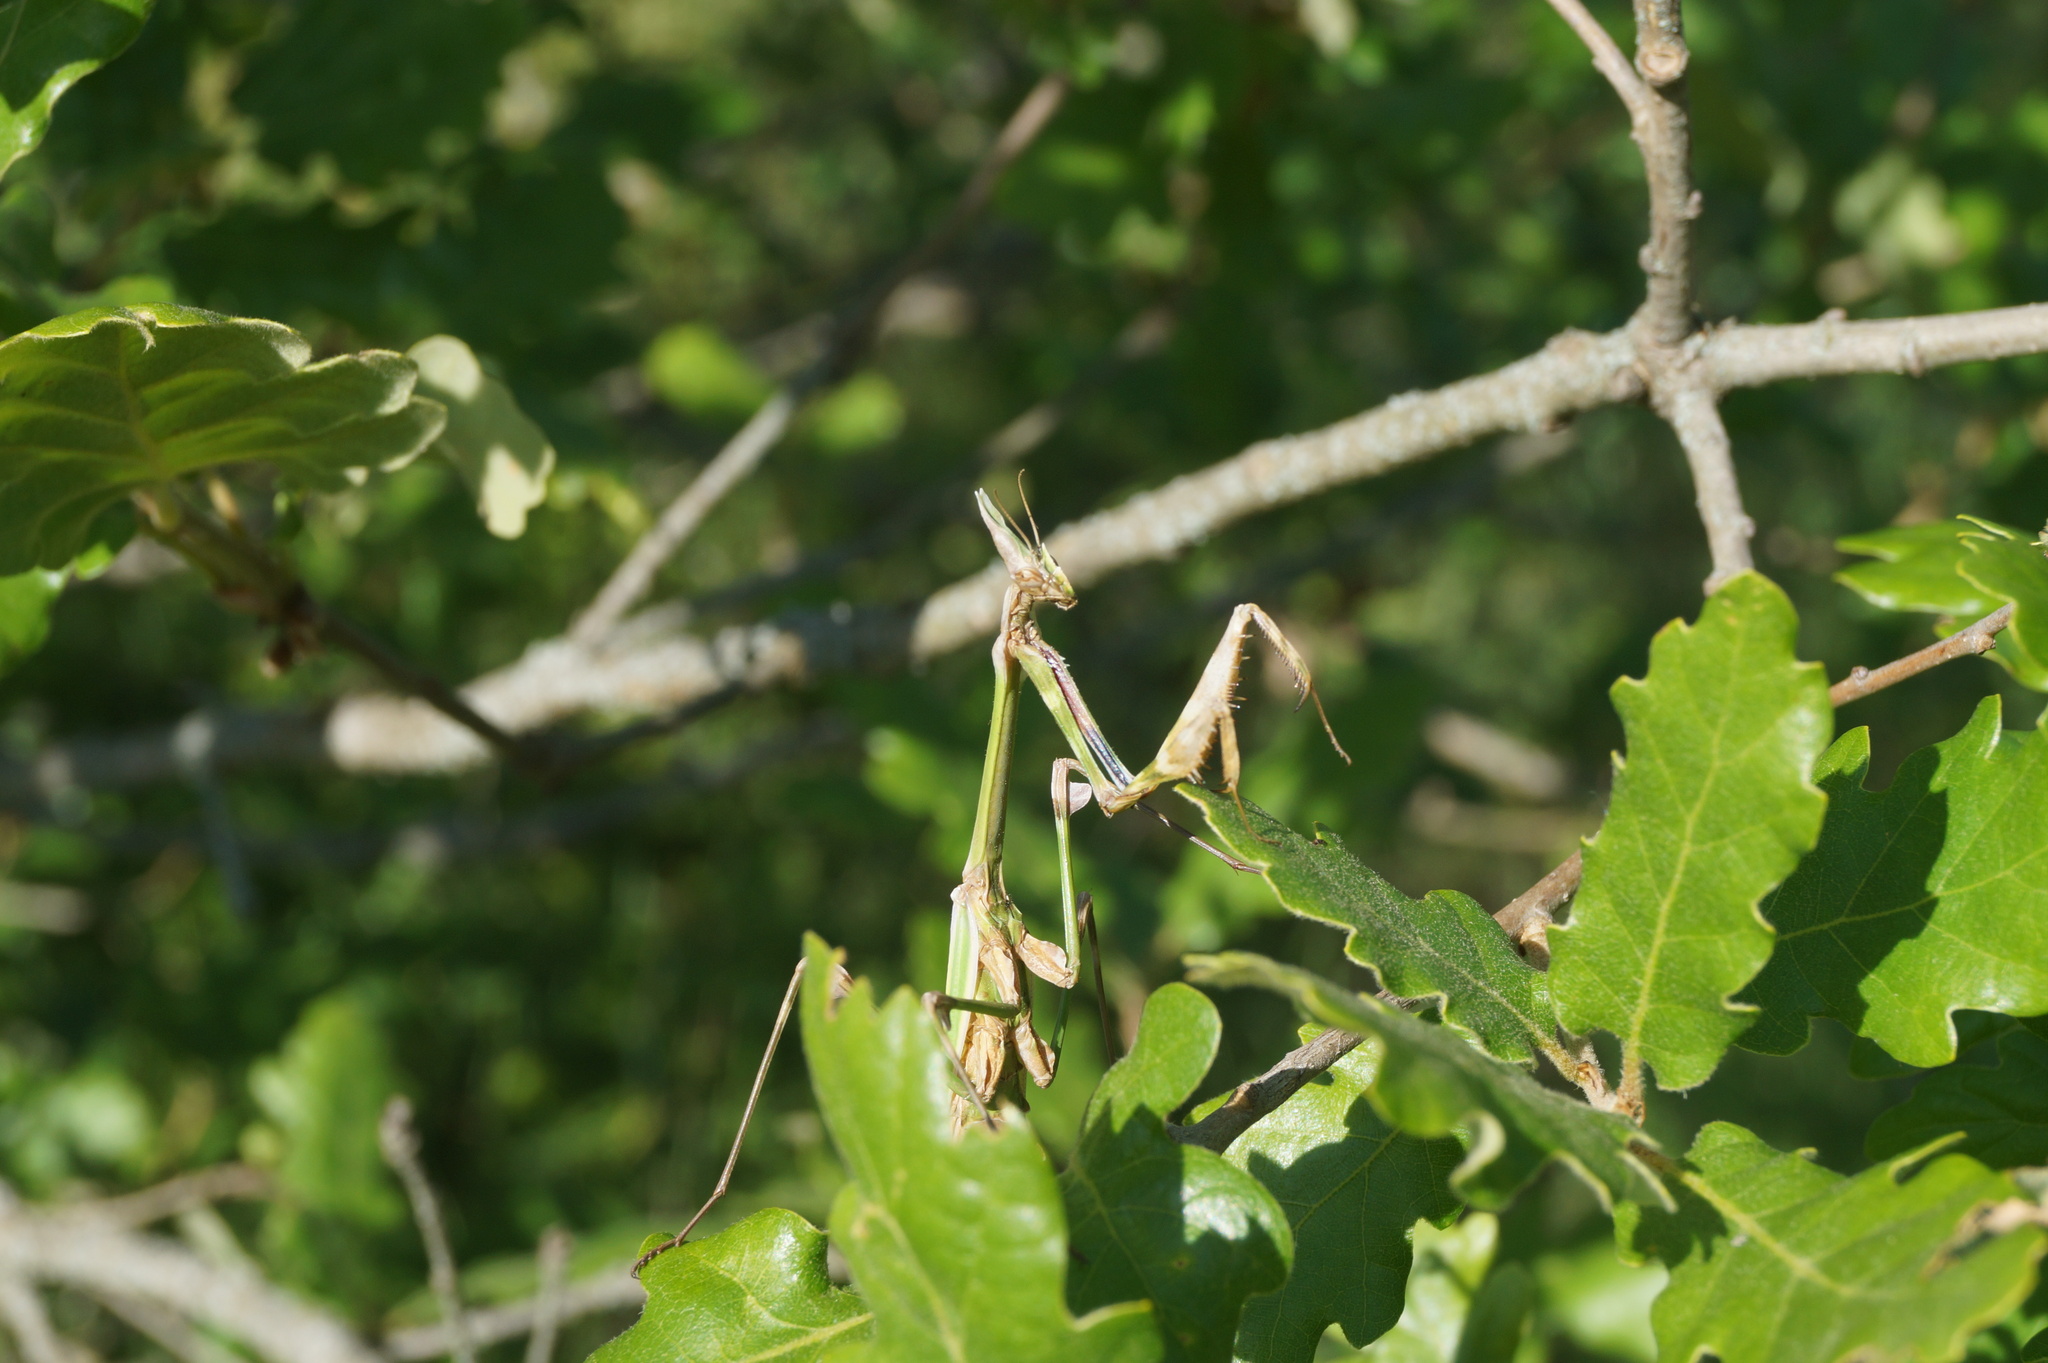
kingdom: Animalia
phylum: Arthropoda
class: Insecta
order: Mantodea
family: Empusidae
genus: Empusa
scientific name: Empusa fasciata
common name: Devil's mare
